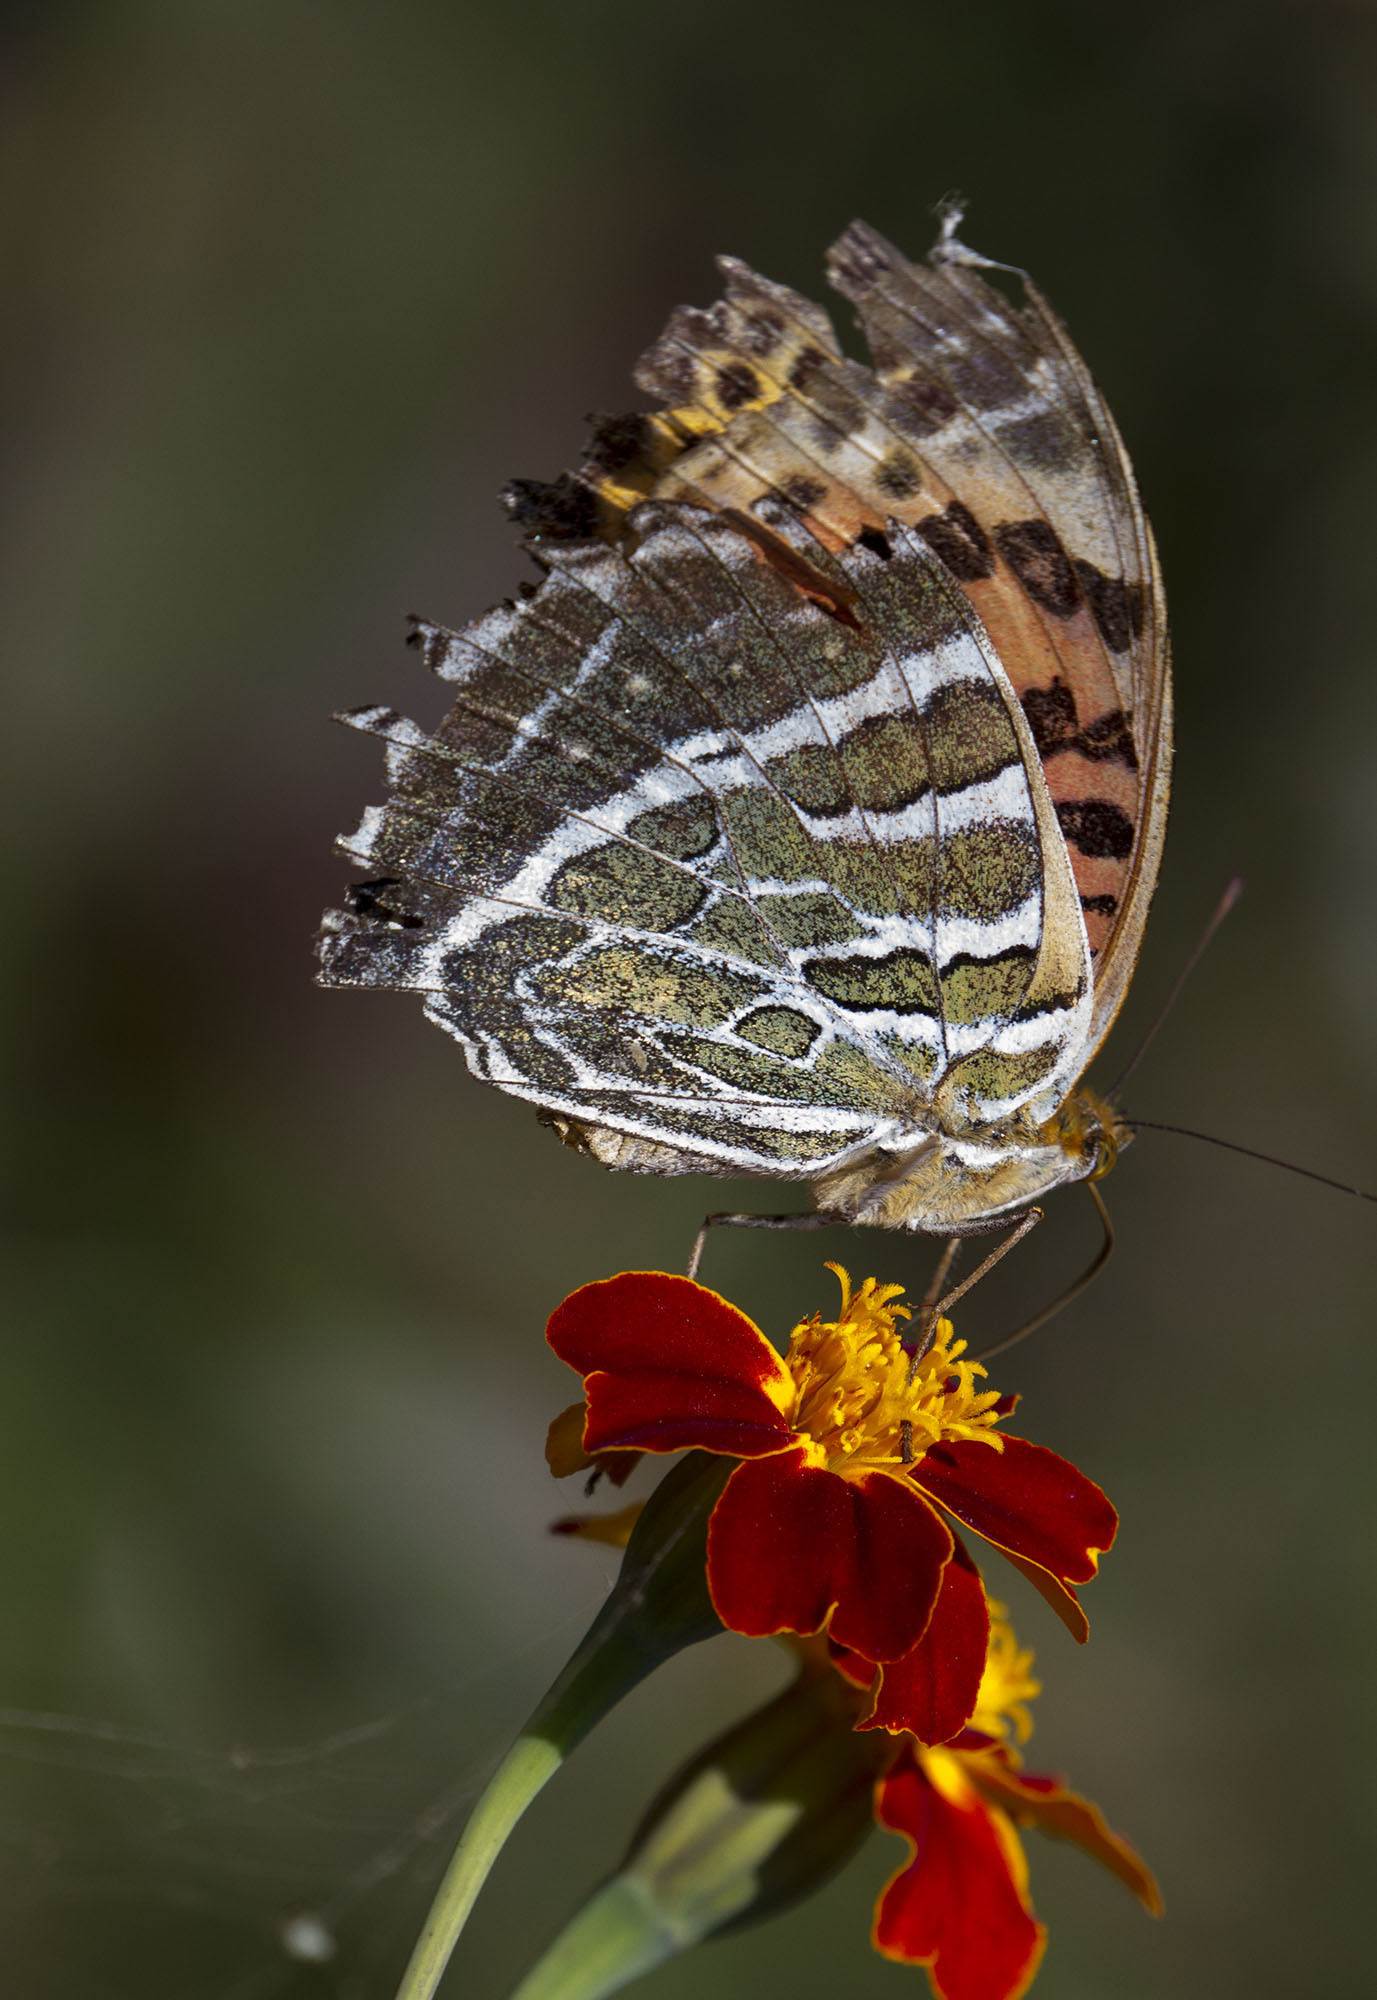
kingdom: Animalia
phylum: Arthropoda
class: Insecta
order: Lepidoptera
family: Nymphalidae
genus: Childrena
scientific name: Childrena childreni
